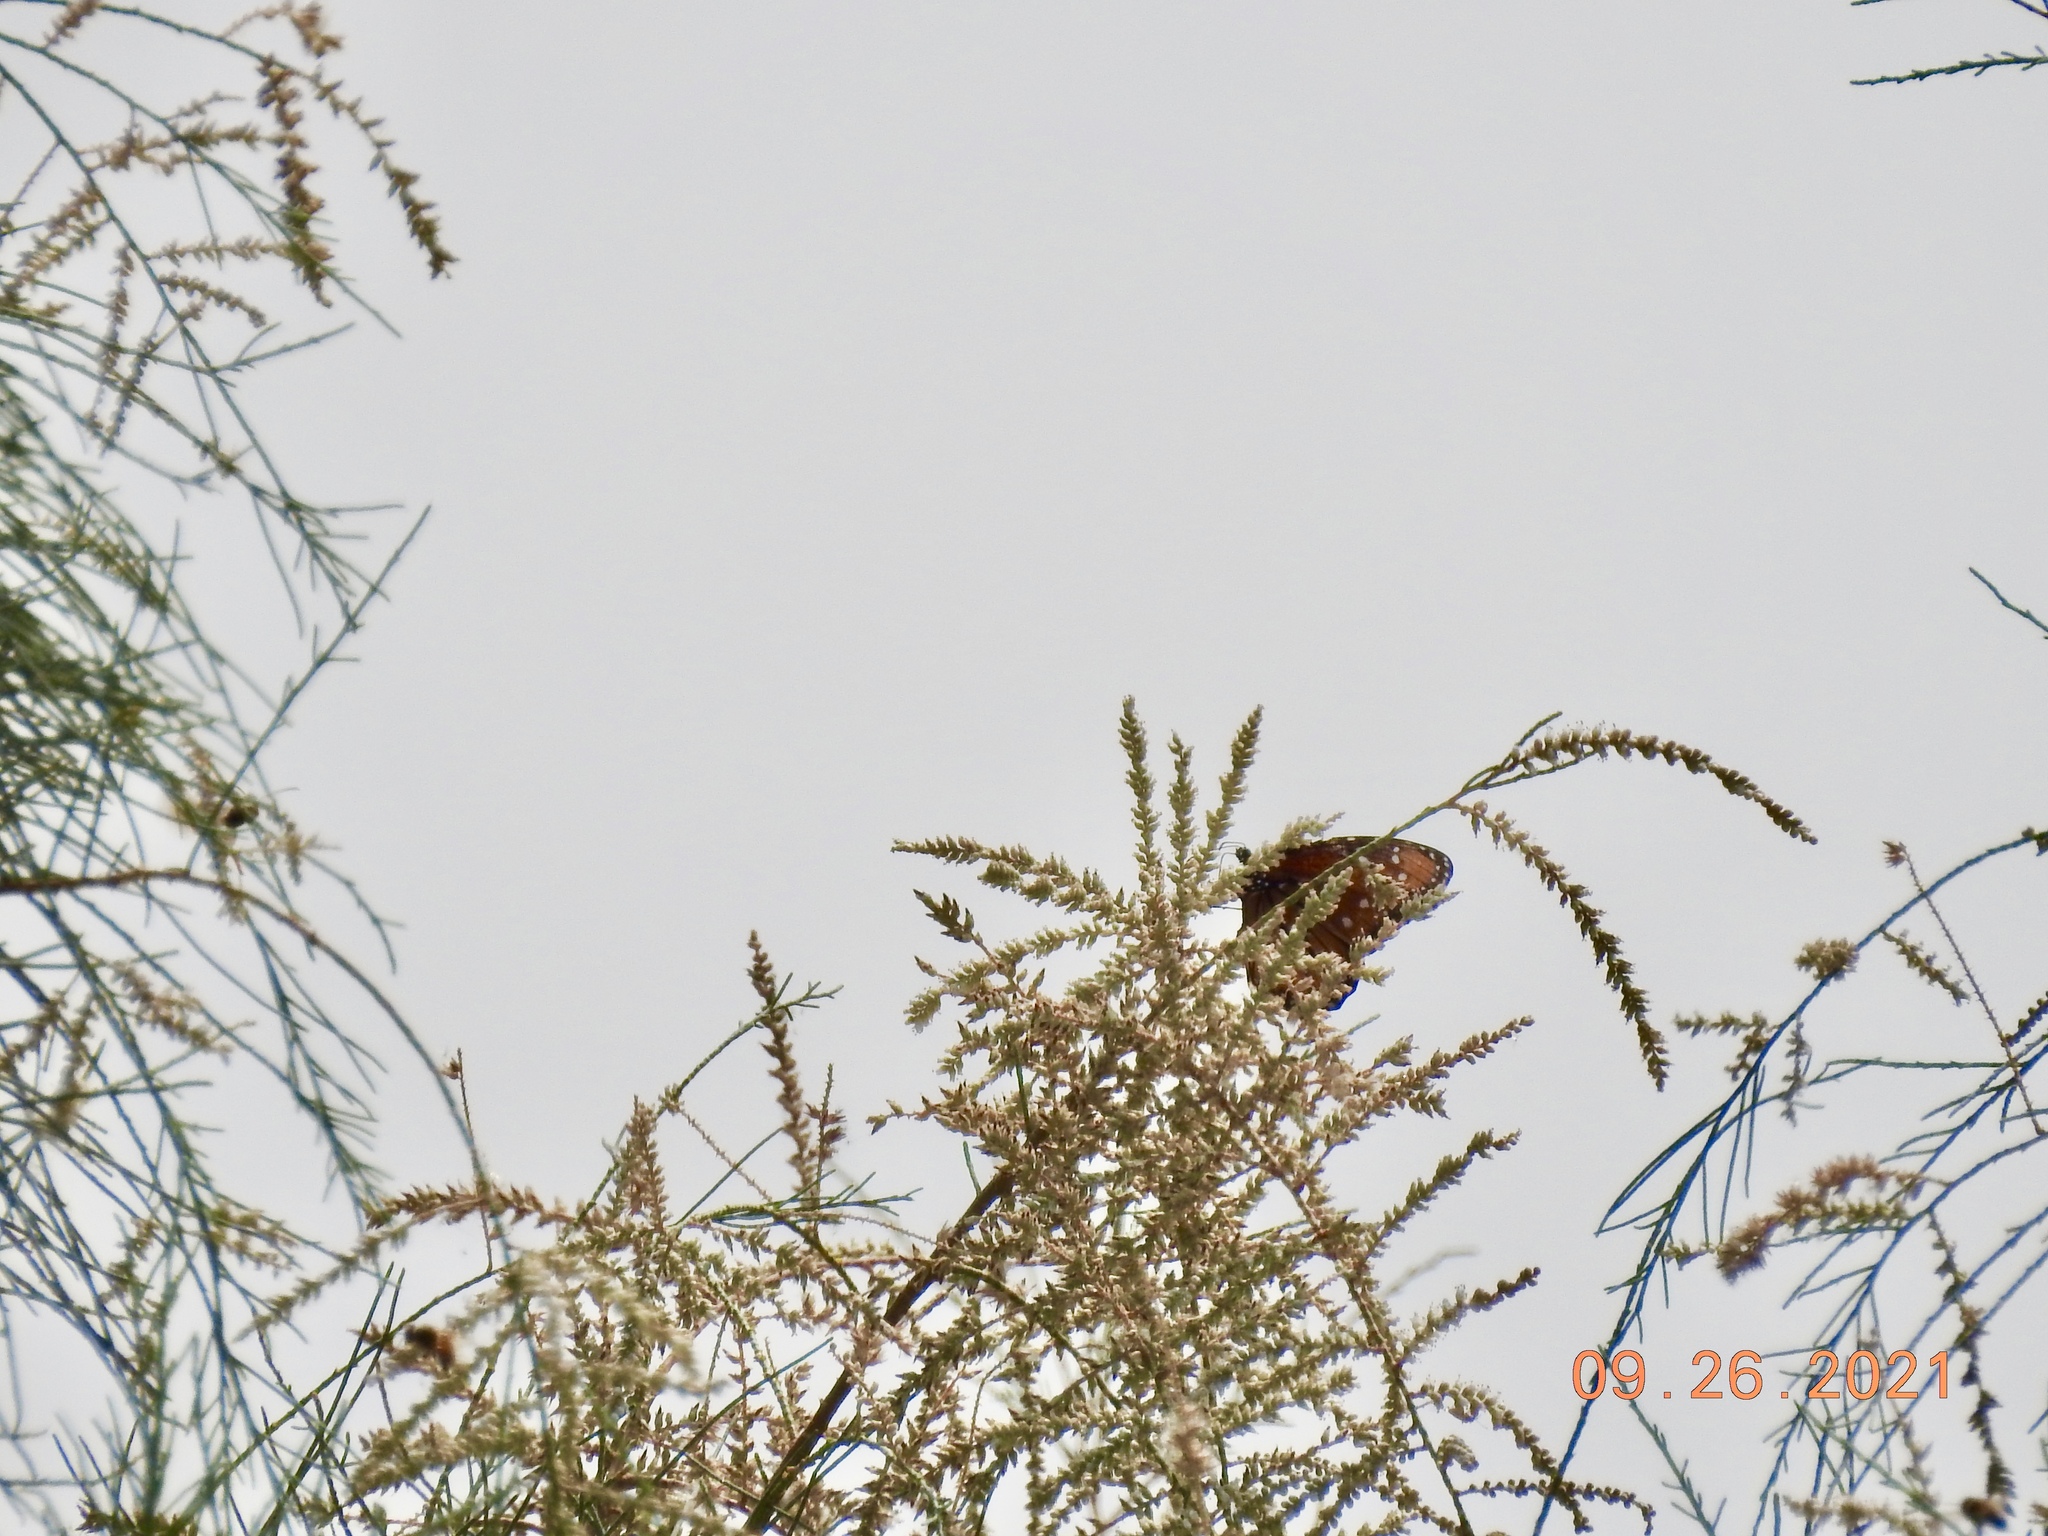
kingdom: Animalia
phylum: Arthropoda
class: Insecta
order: Lepidoptera
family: Nymphalidae
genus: Danaus
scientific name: Danaus gilippus
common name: Queen
